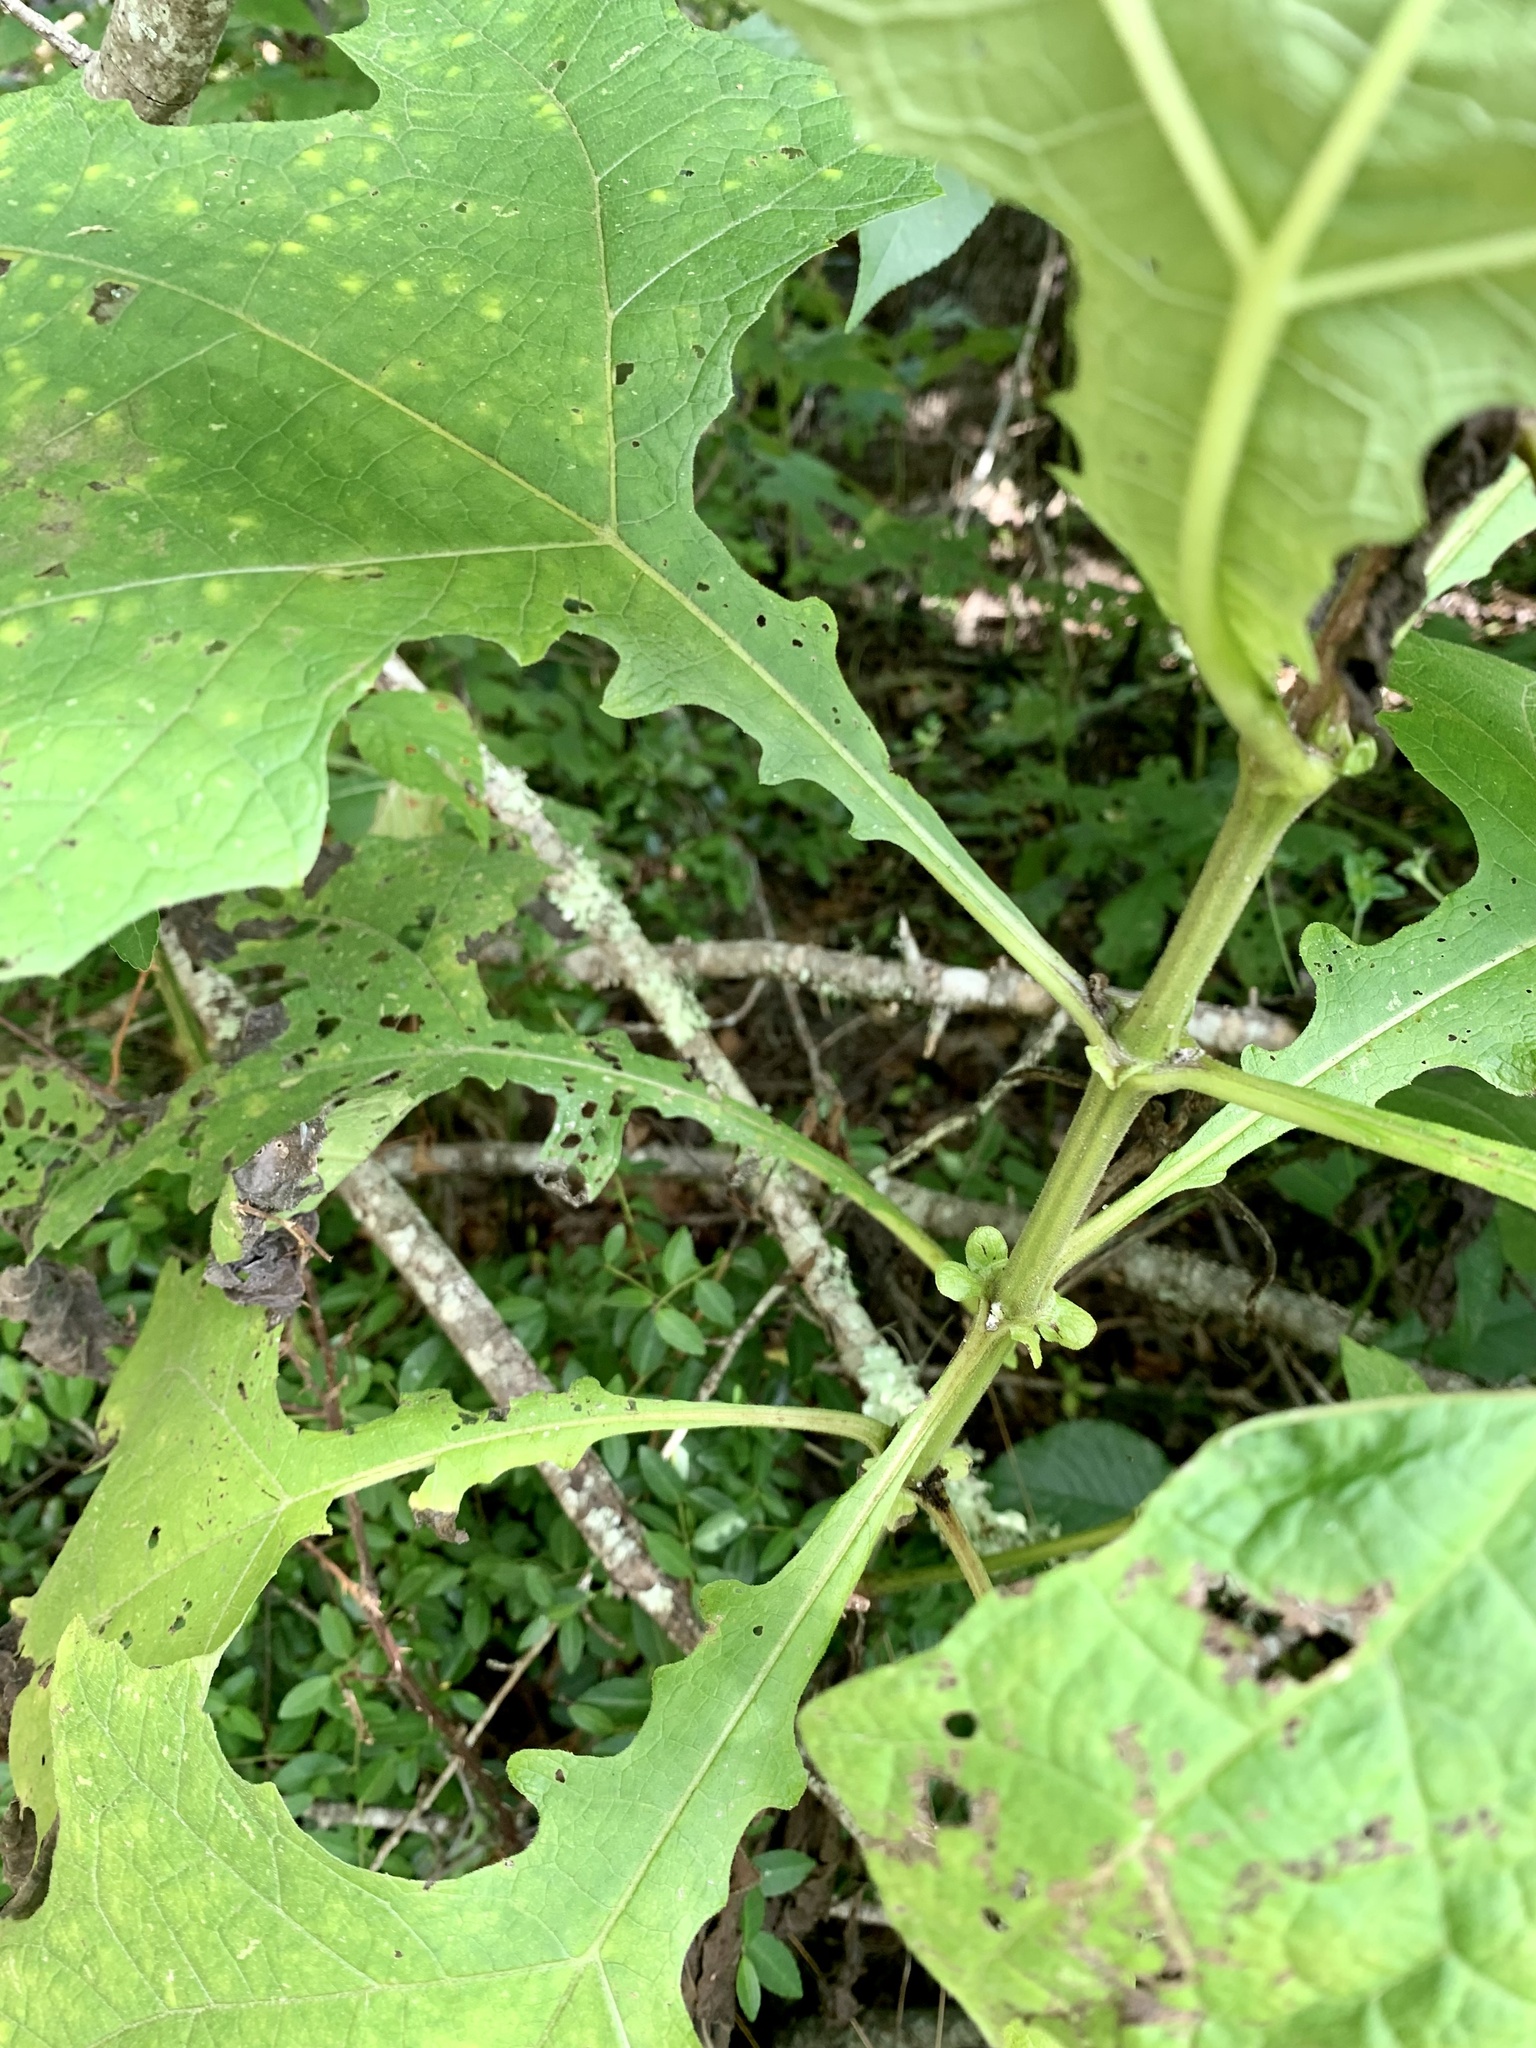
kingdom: Plantae
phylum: Tracheophyta
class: Magnoliopsida
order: Asterales
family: Asteraceae
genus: Smallanthus
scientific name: Smallanthus uvedalia
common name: Bear's-foot
